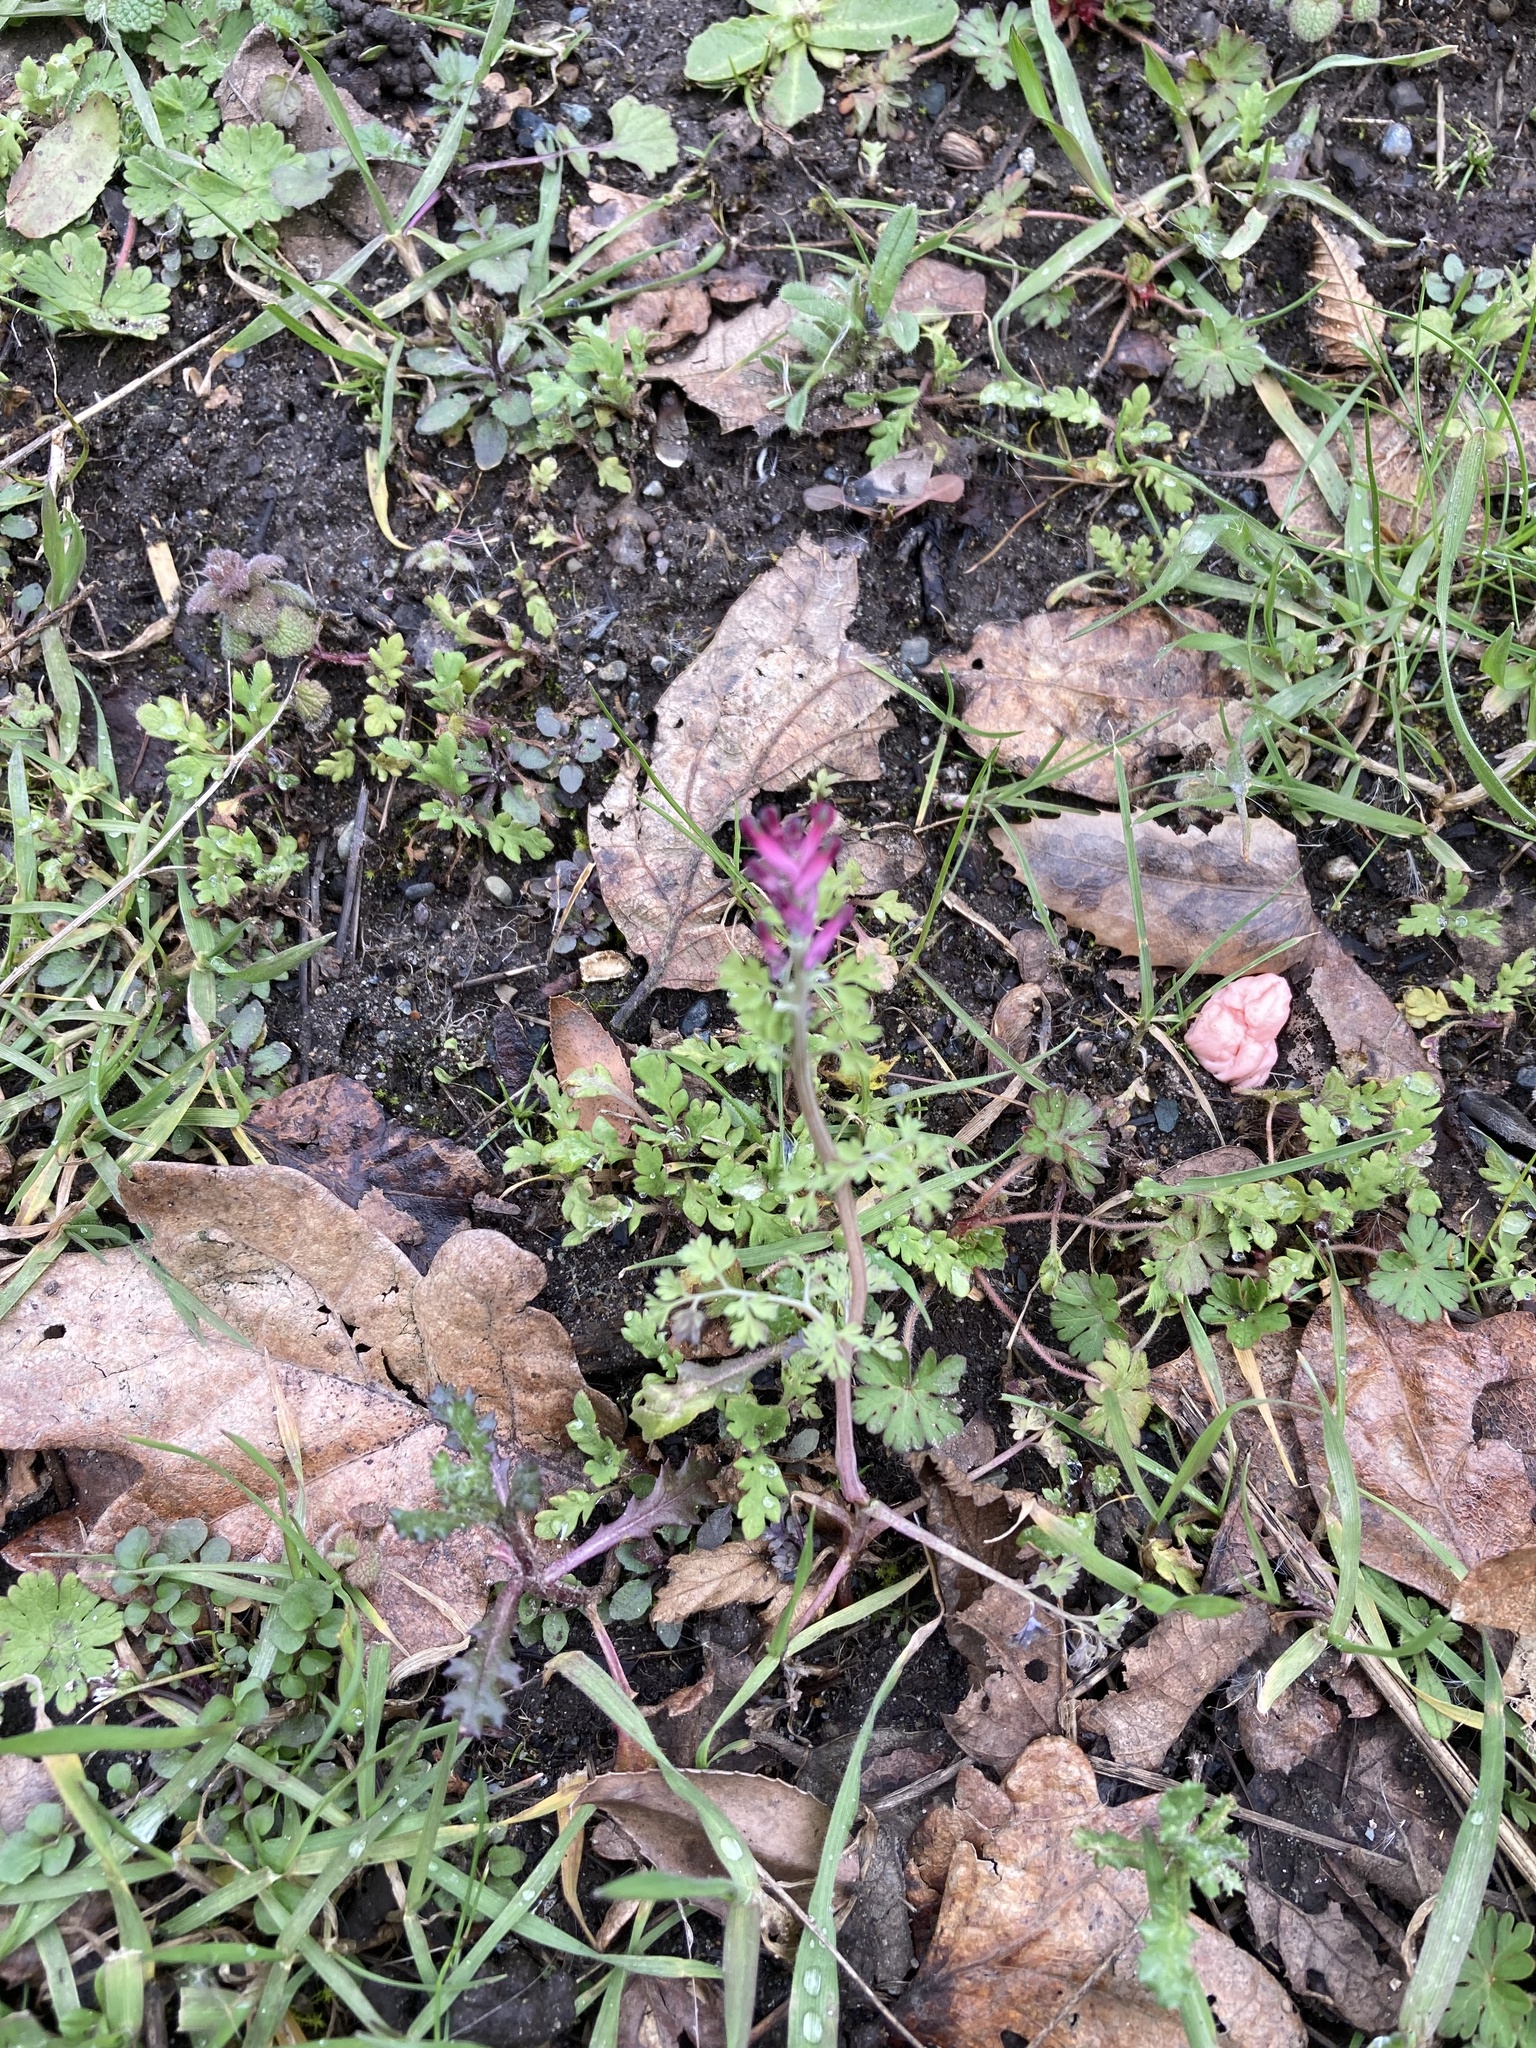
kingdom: Plantae
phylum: Tracheophyta
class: Magnoliopsida
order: Ranunculales
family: Papaveraceae
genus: Fumaria
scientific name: Fumaria officinalis
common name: Common fumitory
